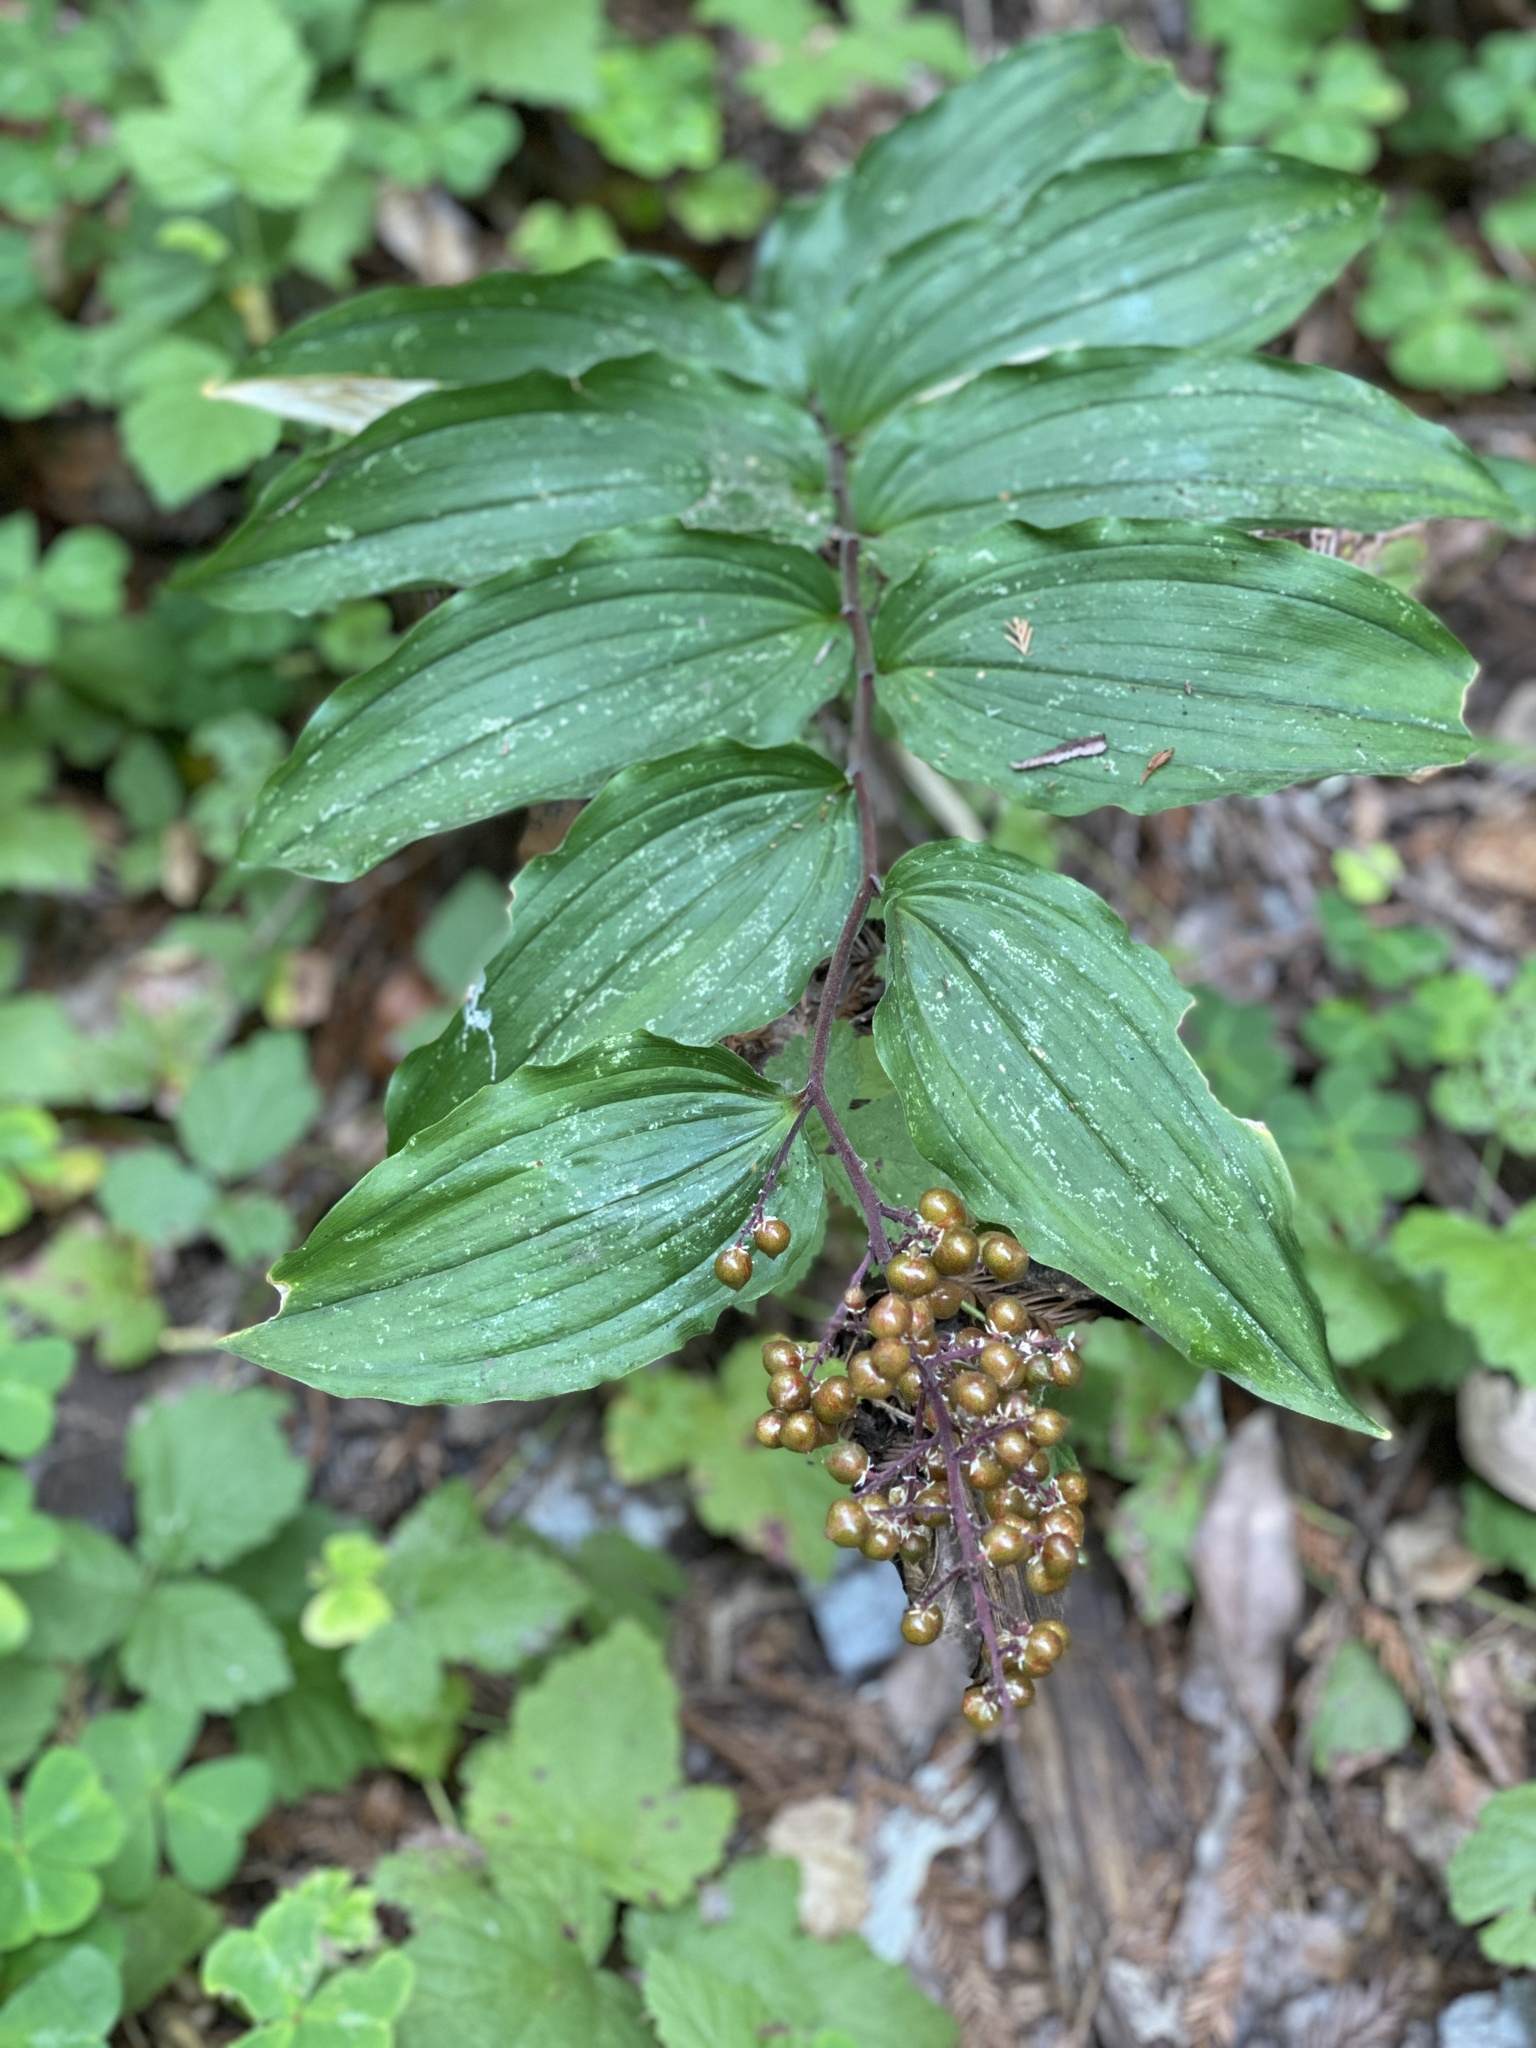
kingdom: Plantae
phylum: Tracheophyta
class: Liliopsida
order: Asparagales
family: Asparagaceae
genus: Maianthemum
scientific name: Maianthemum racemosum
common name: False spikenard
